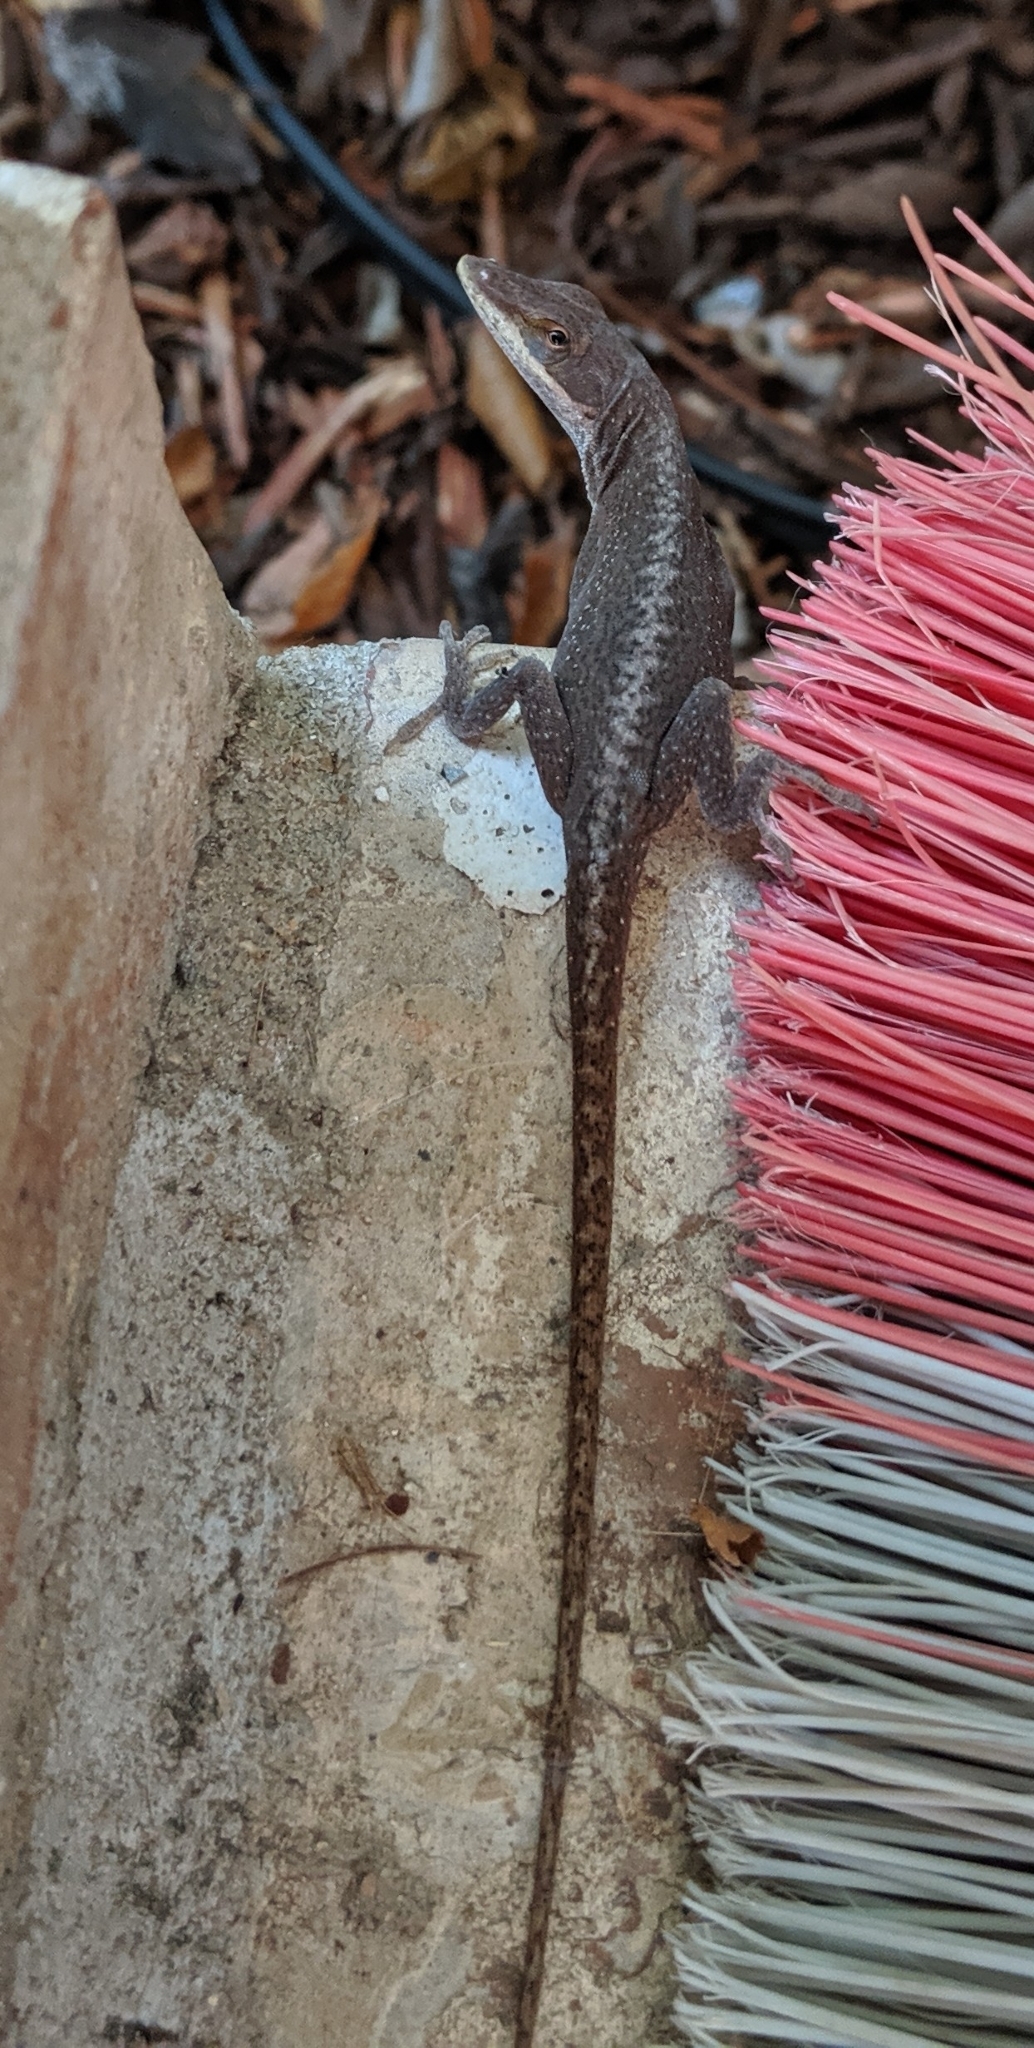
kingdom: Animalia
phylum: Chordata
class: Squamata
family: Dactyloidae
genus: Anolis
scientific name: Anolis carolinensis
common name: Green anole
